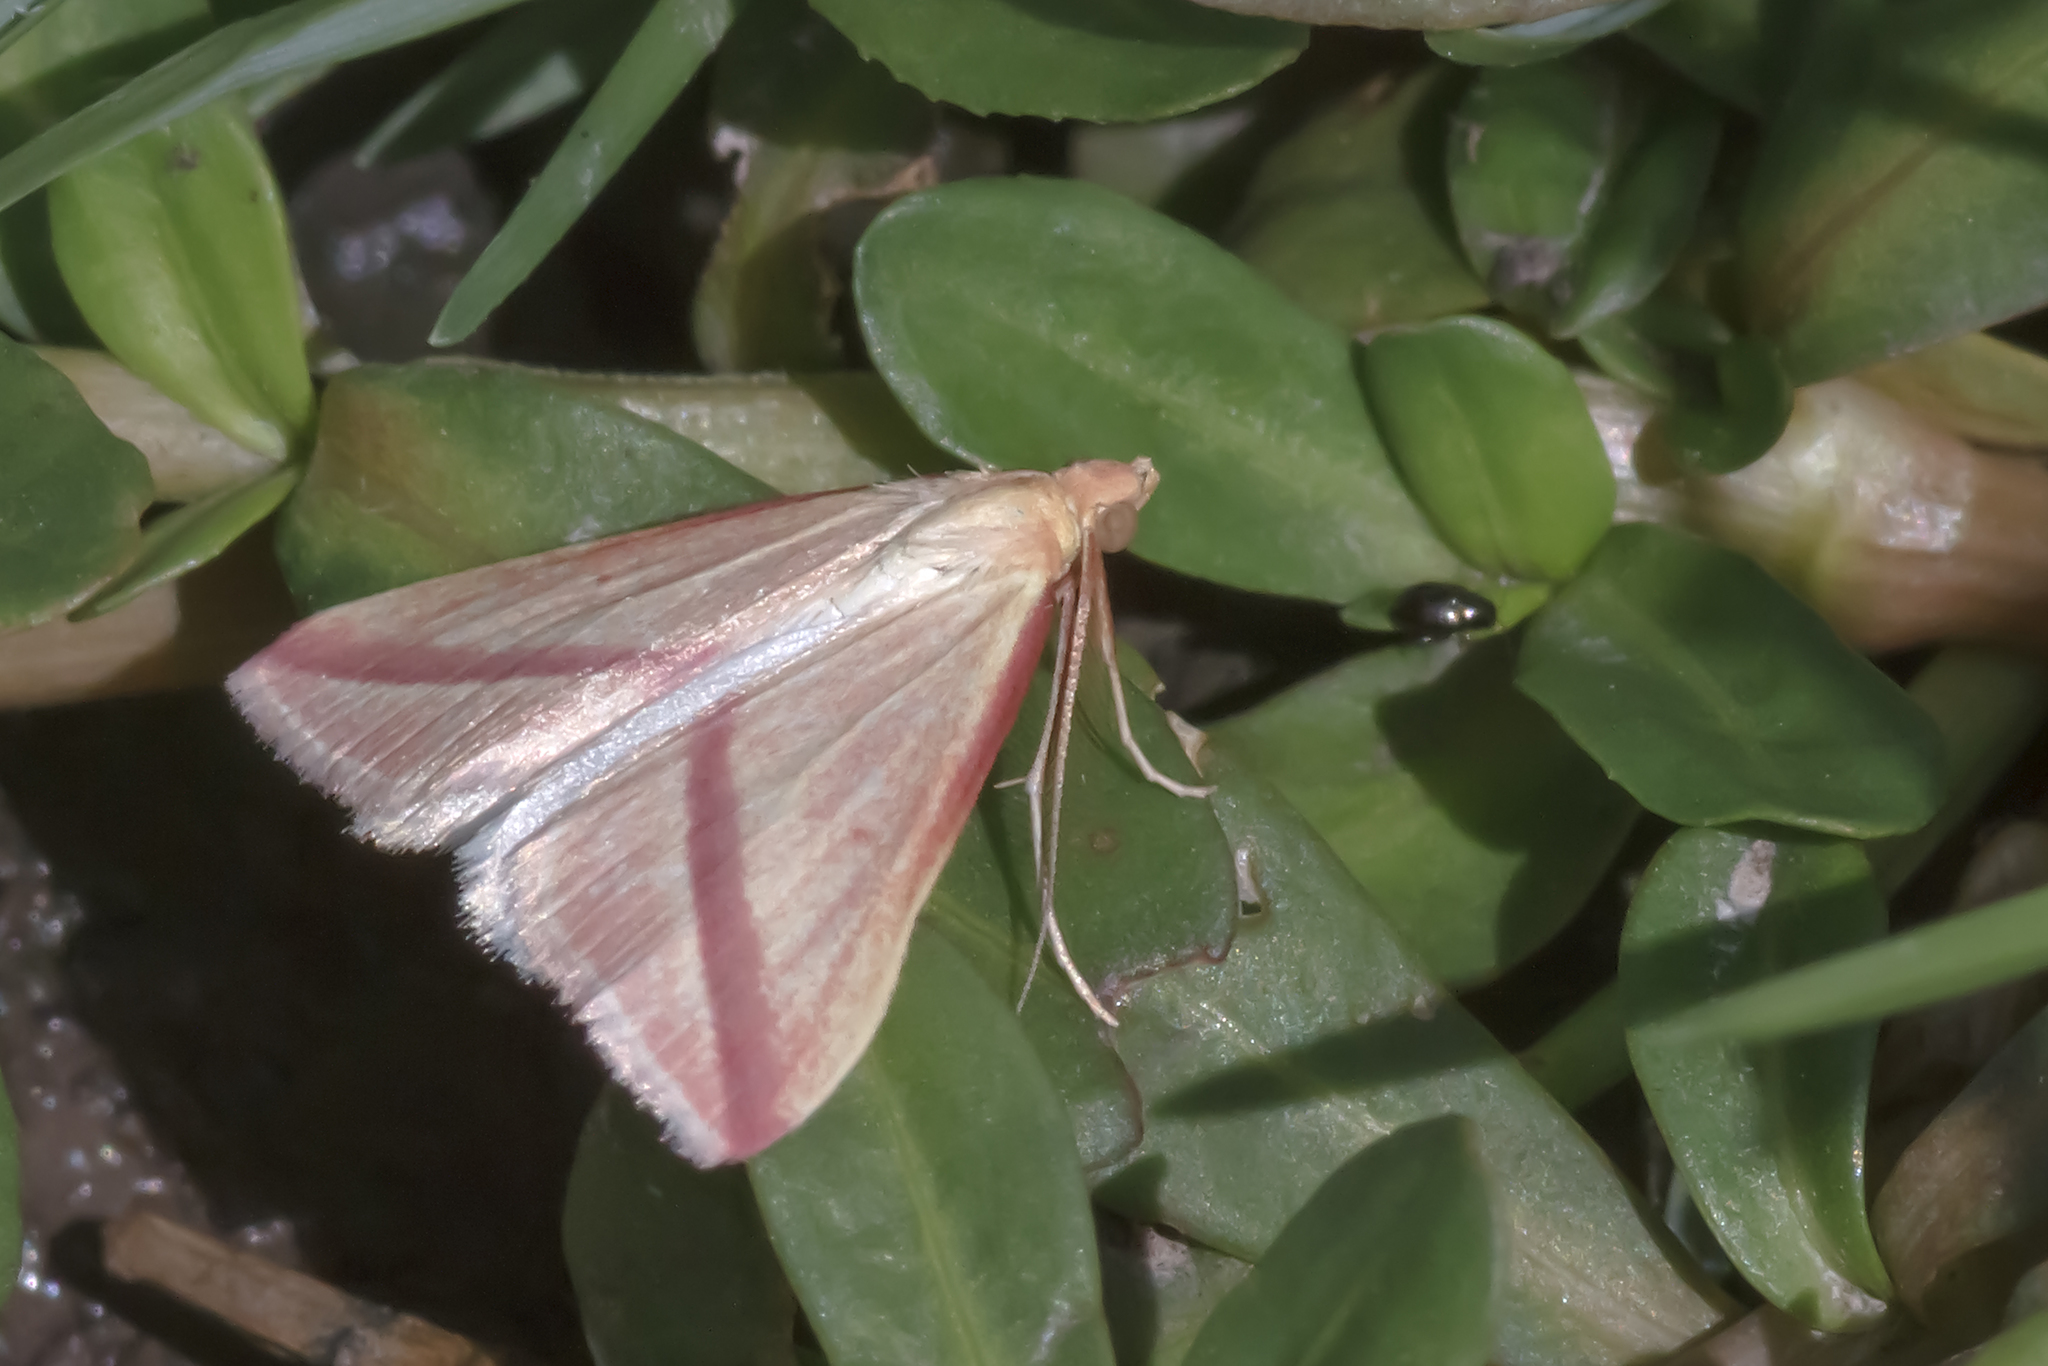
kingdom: Animalia
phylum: Arthropoda
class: Insecta
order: Lepidoptera
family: Geometridae
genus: Rhodometra
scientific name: Rhodometra sacraria
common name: Vestal
